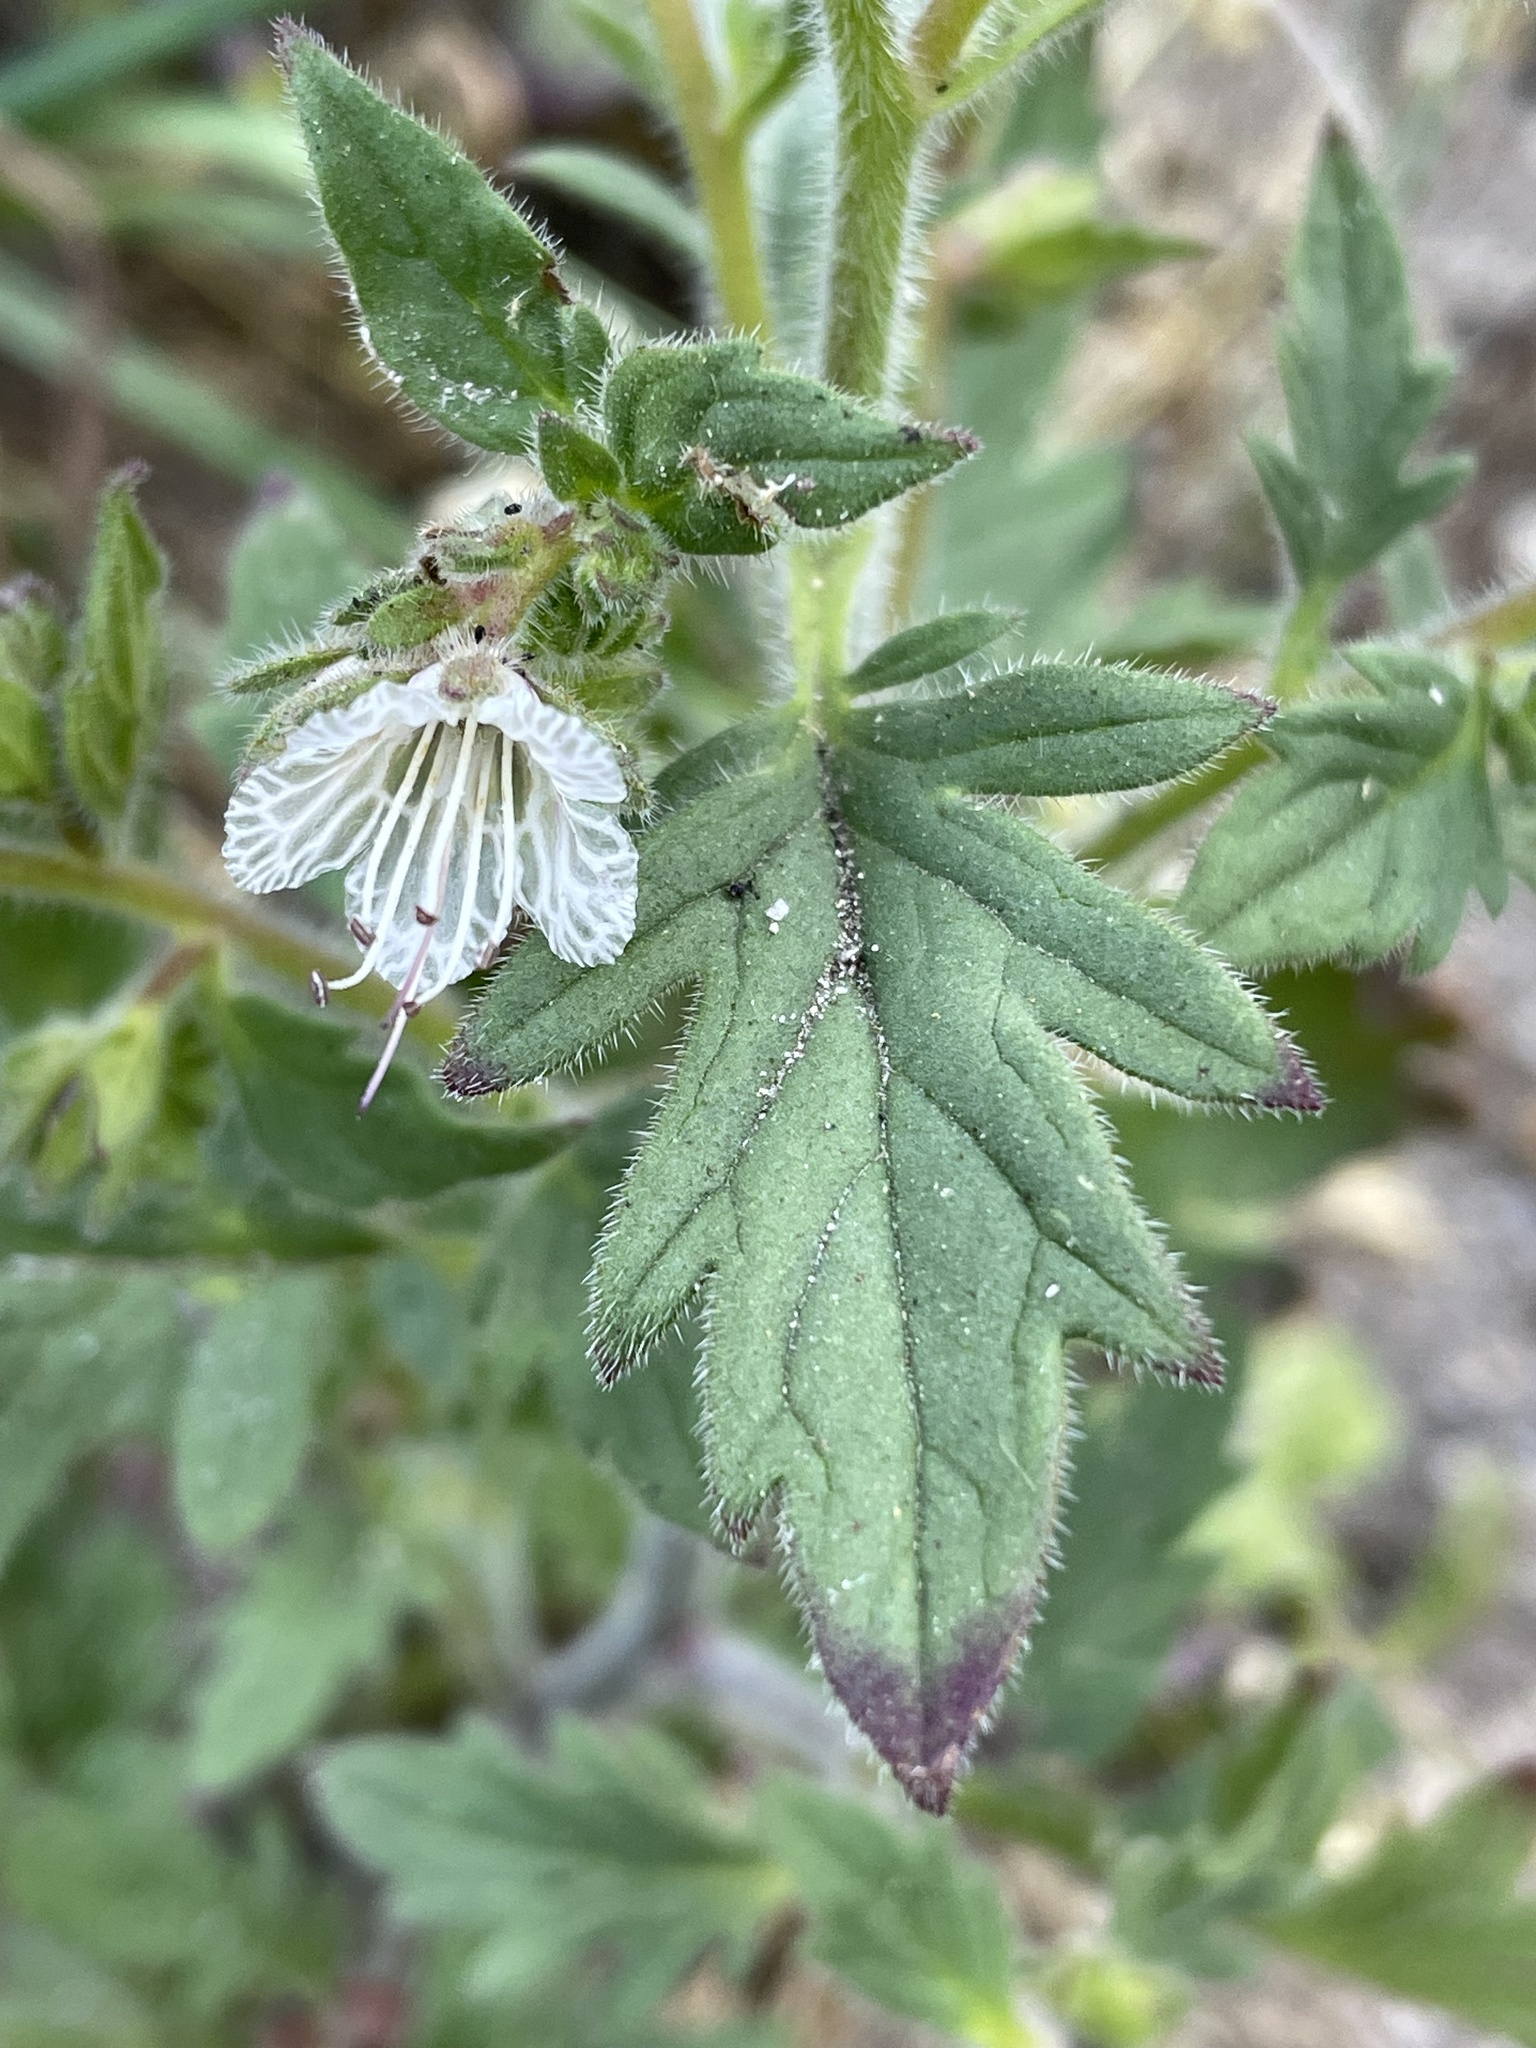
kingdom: Plantae
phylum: Tracheophyta
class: Magnoliopsida
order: Boraginales
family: Hydrophyllaceae
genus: Phacelia
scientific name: Phacelia grisea
